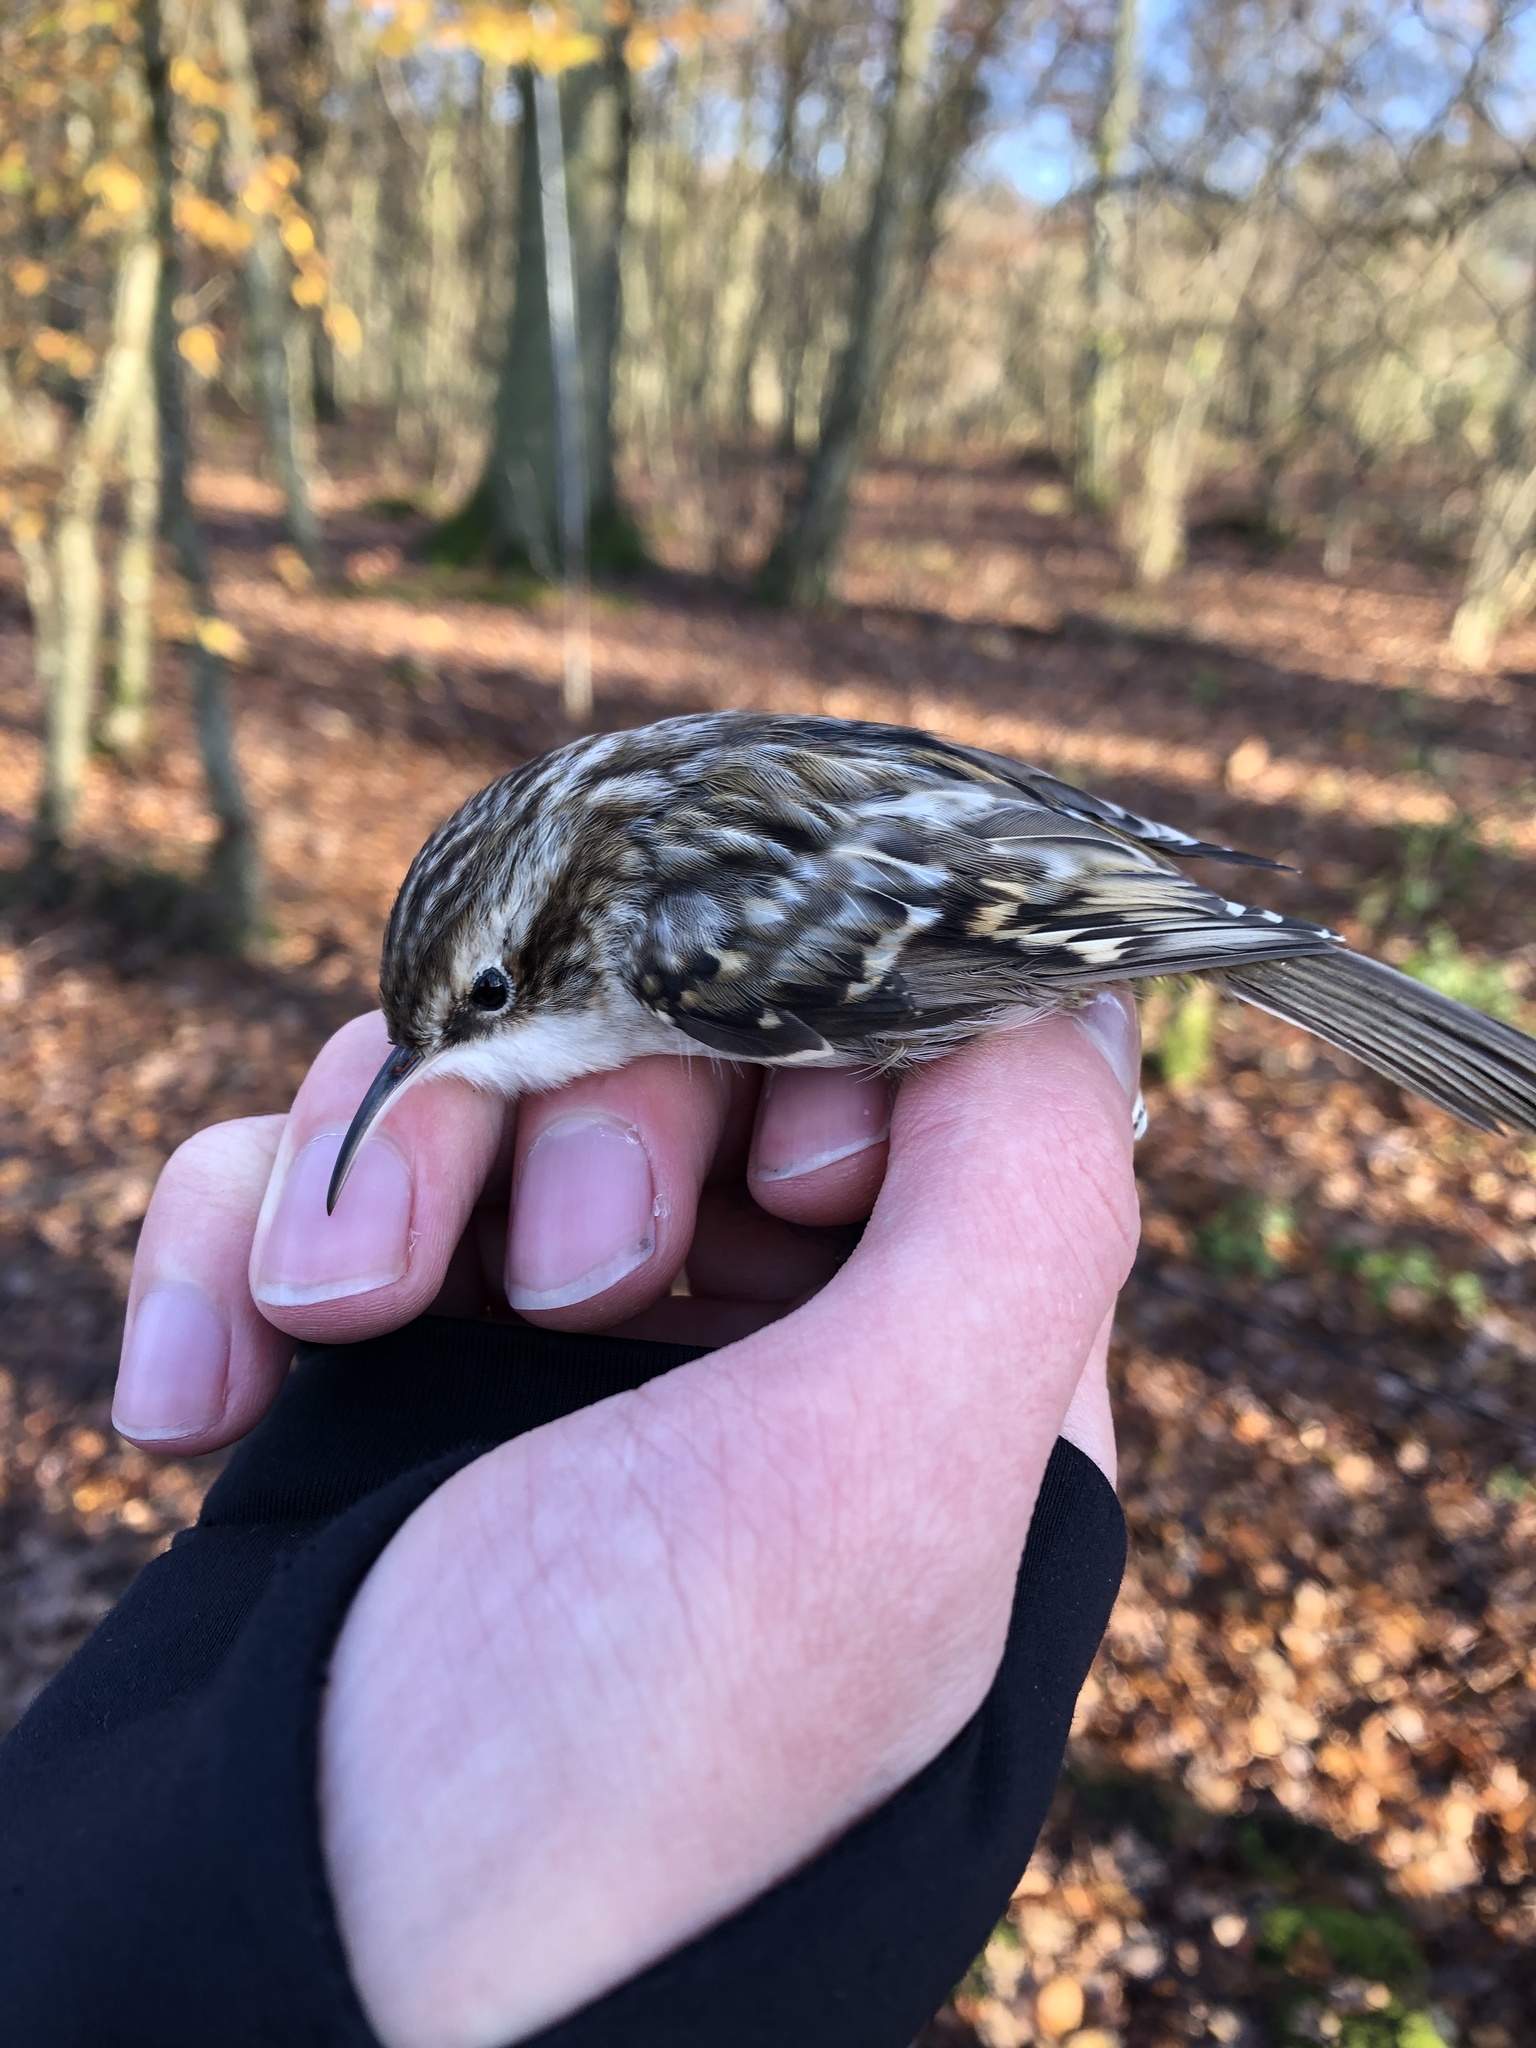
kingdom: Animalia
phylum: Chordata
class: Aves
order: Passeriformes
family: Certhiidae
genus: Certhia
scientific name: Certhia brachydactyla
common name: Short-toed treecreeper
